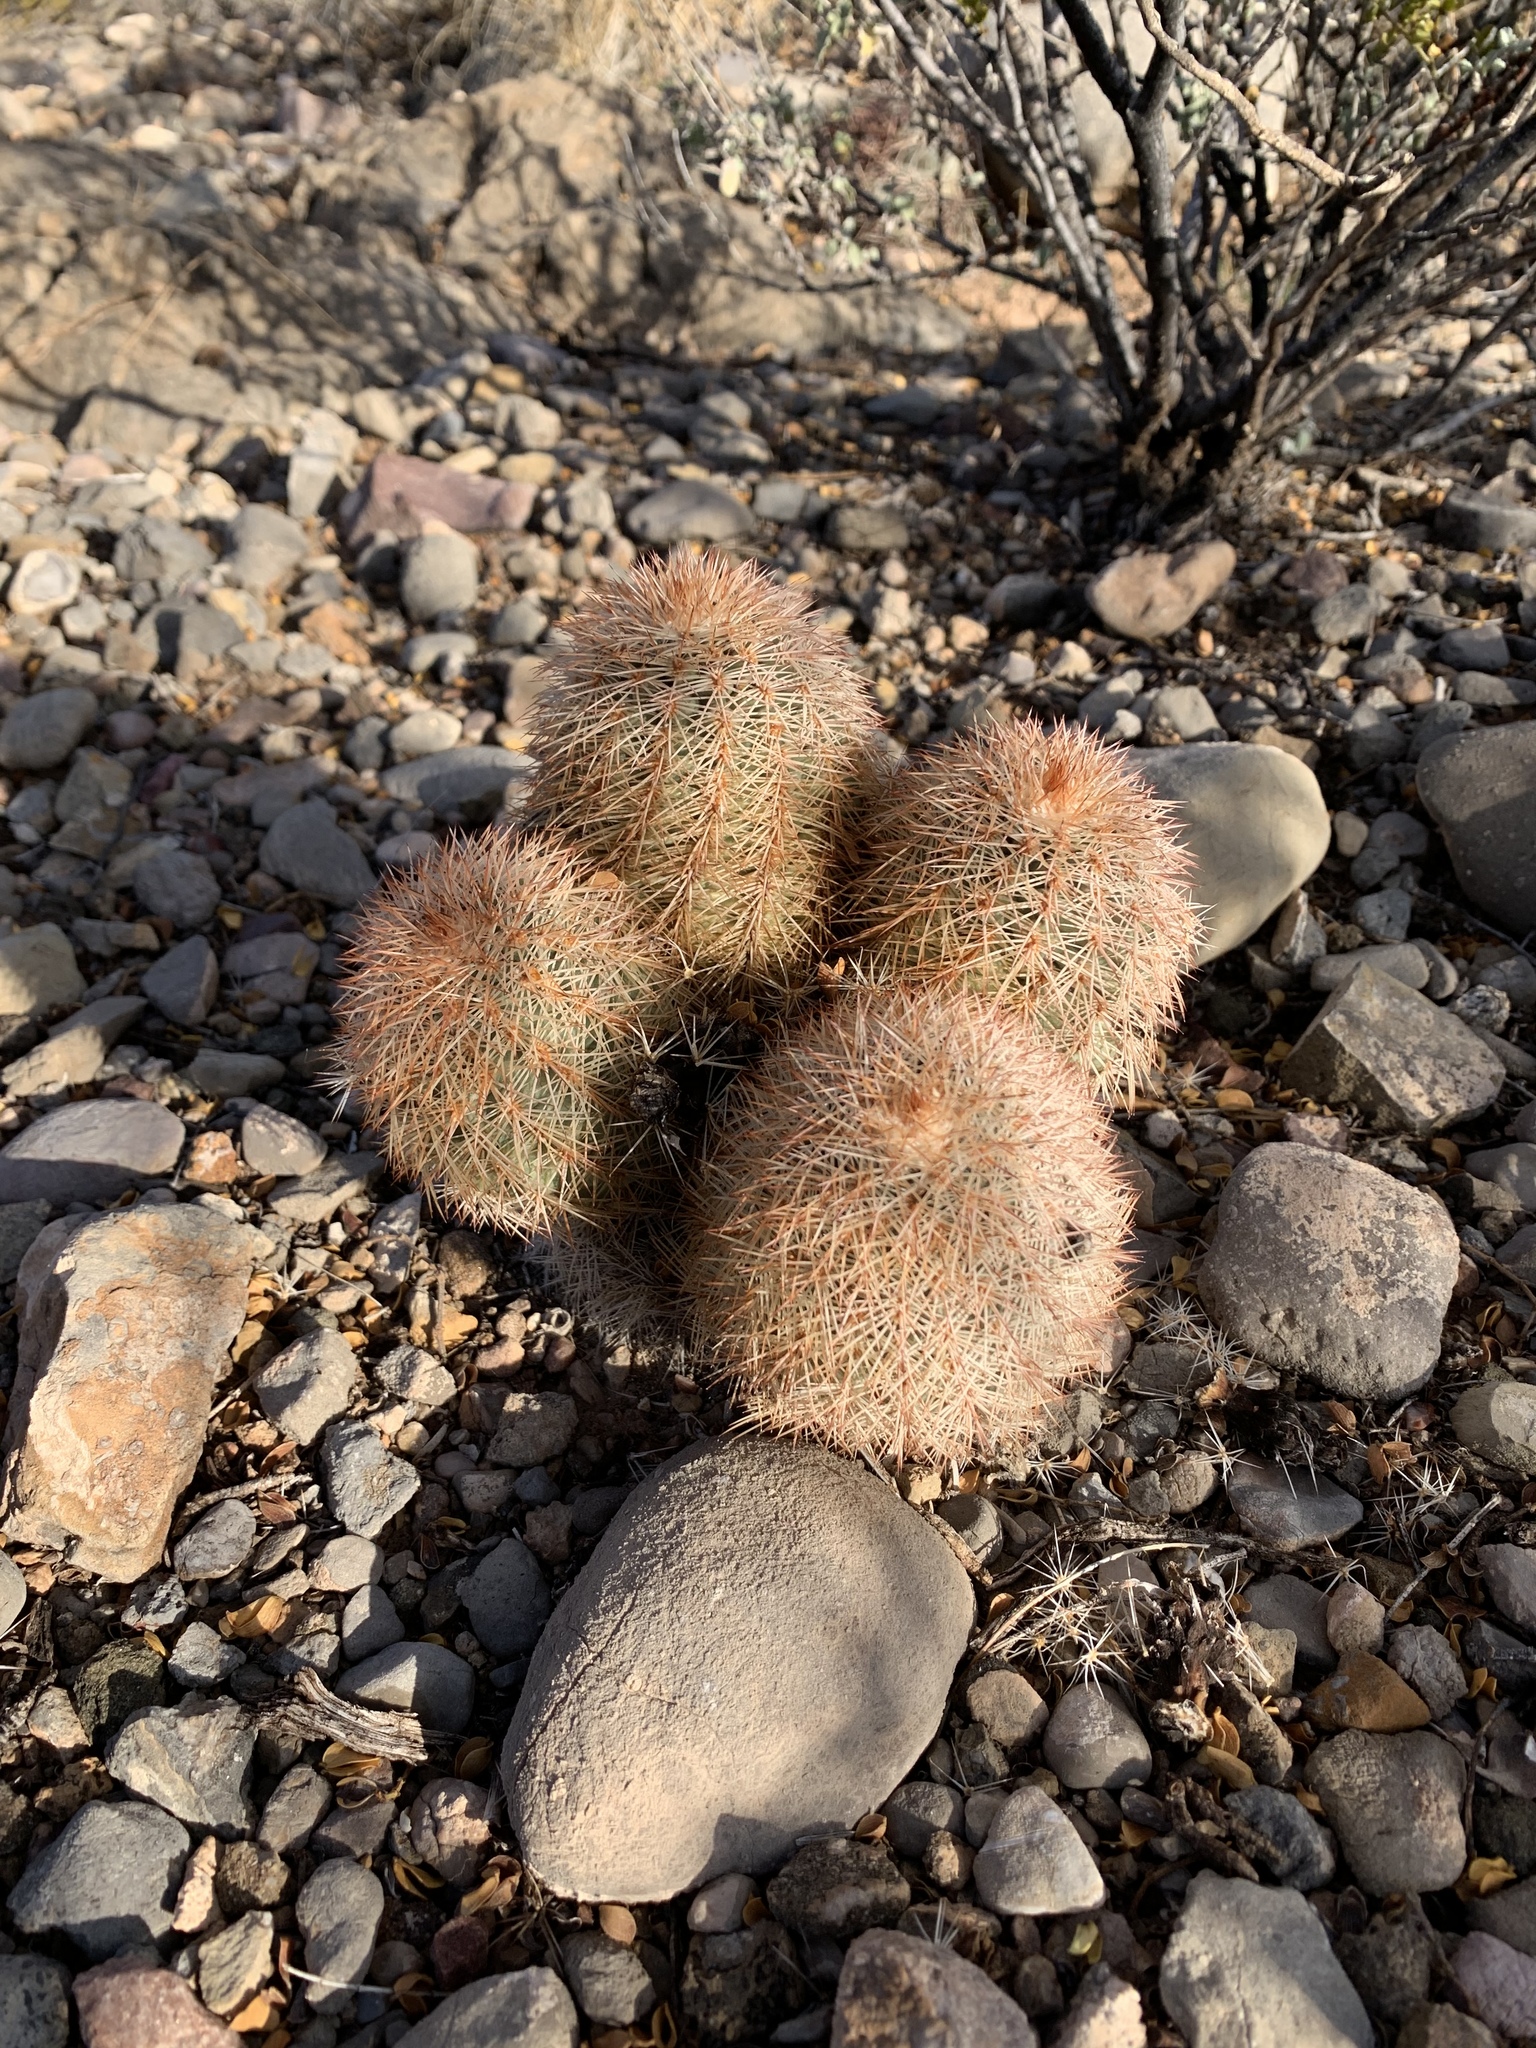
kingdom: Plantae
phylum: Tracheophyta
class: Magnoliopsida
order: Caryophyllales
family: Cactaceae
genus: Echinocereus
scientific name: Echinocereus dasyacanthus
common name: Spiny hedgehog cactus
